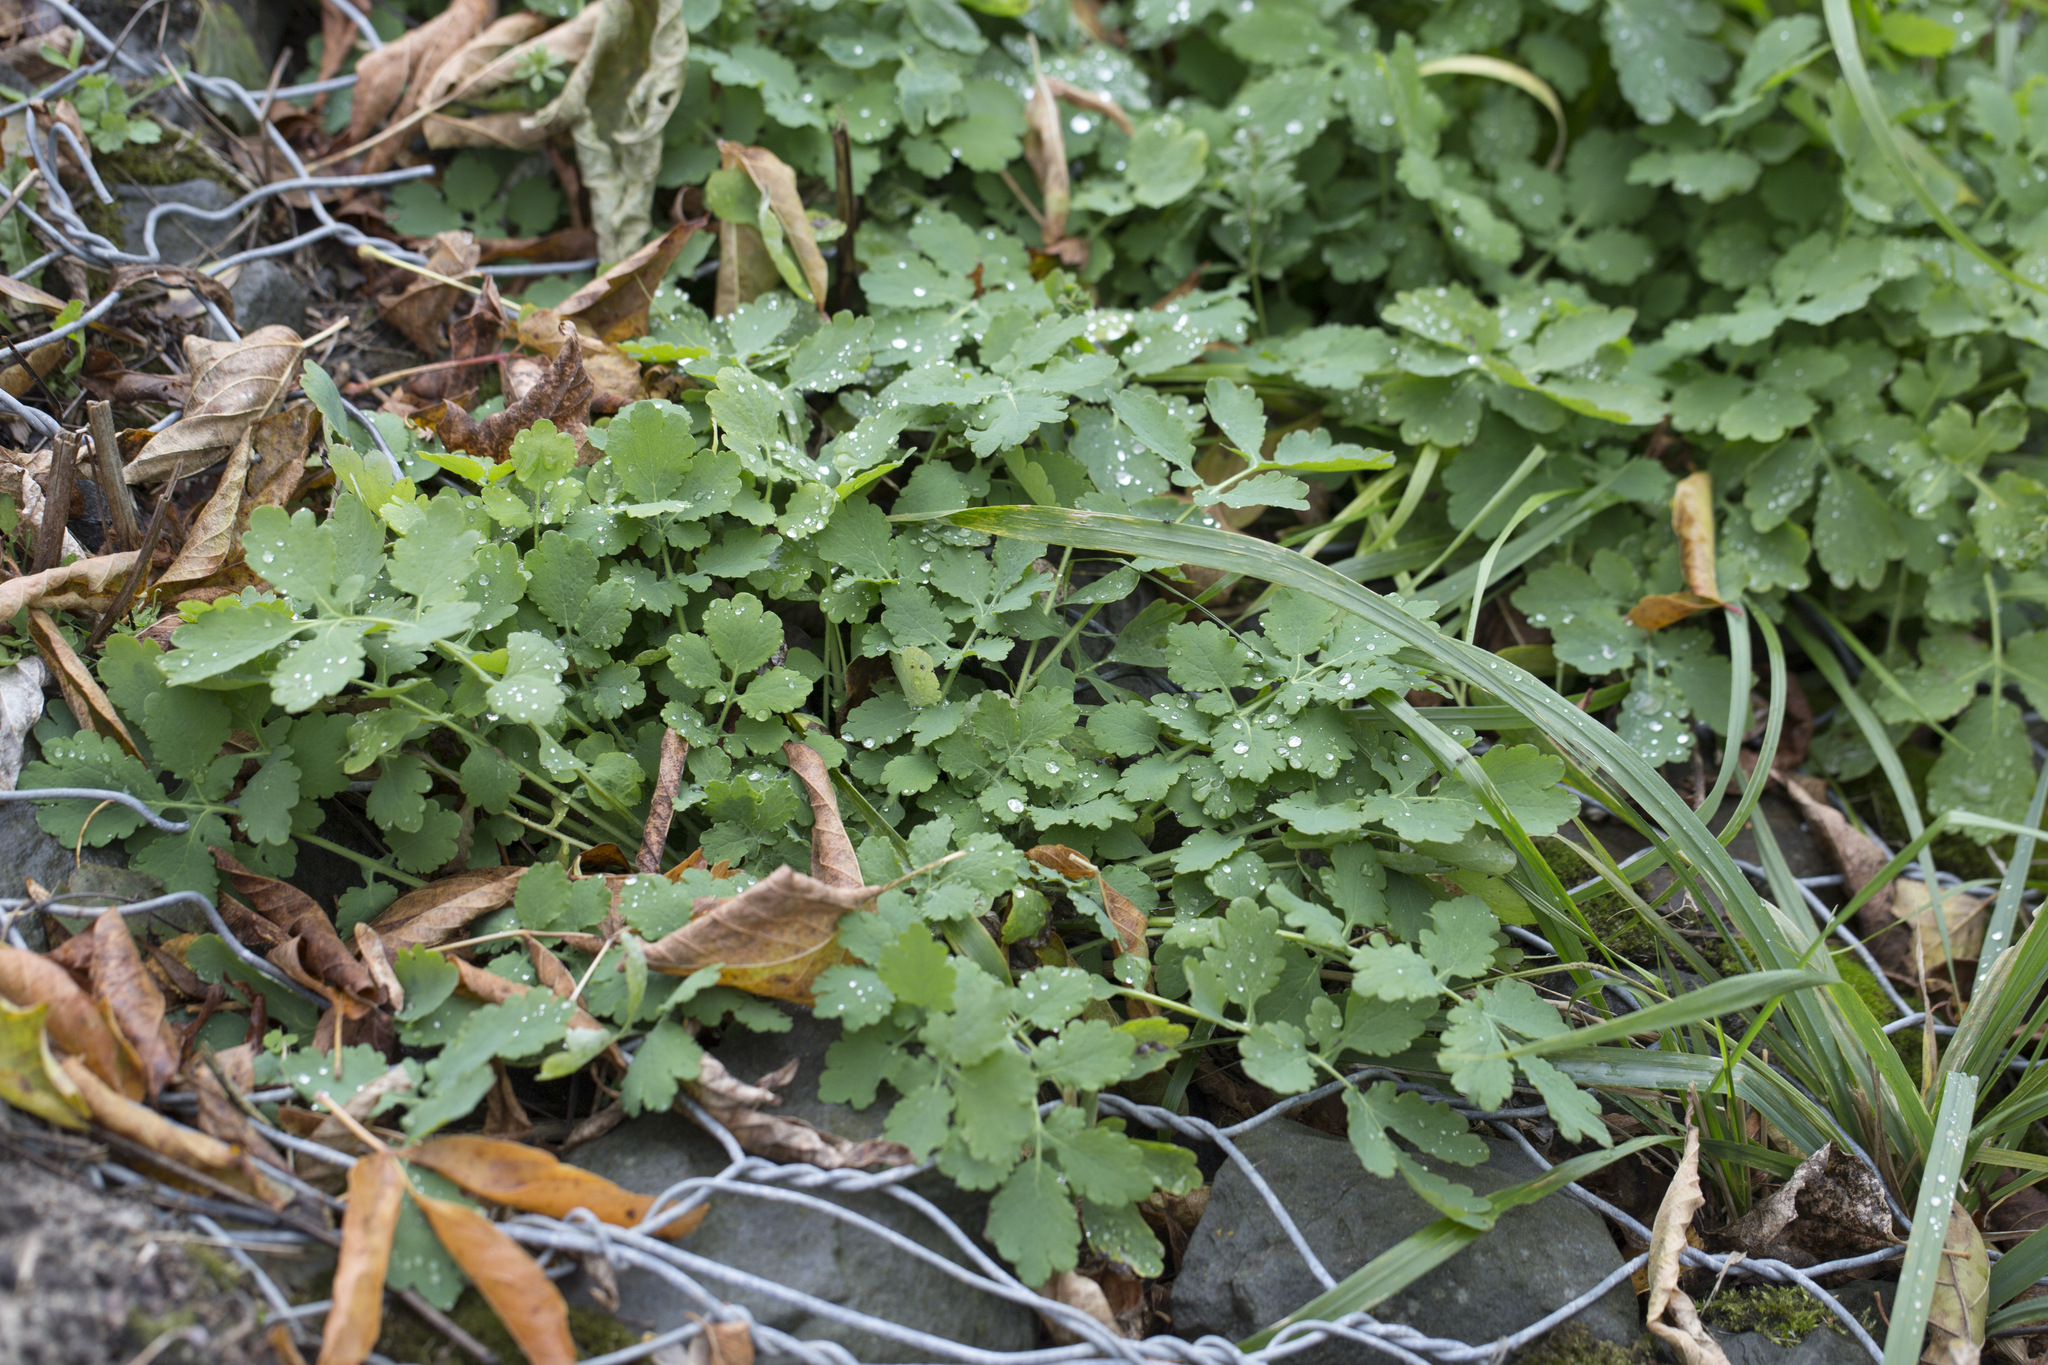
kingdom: Plantae
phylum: Tracheophyta
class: Magnoliopsida
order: Ranunculales
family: Papaveraceae
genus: Chelidonium
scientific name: Chelidonium majus
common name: Greater celandine
